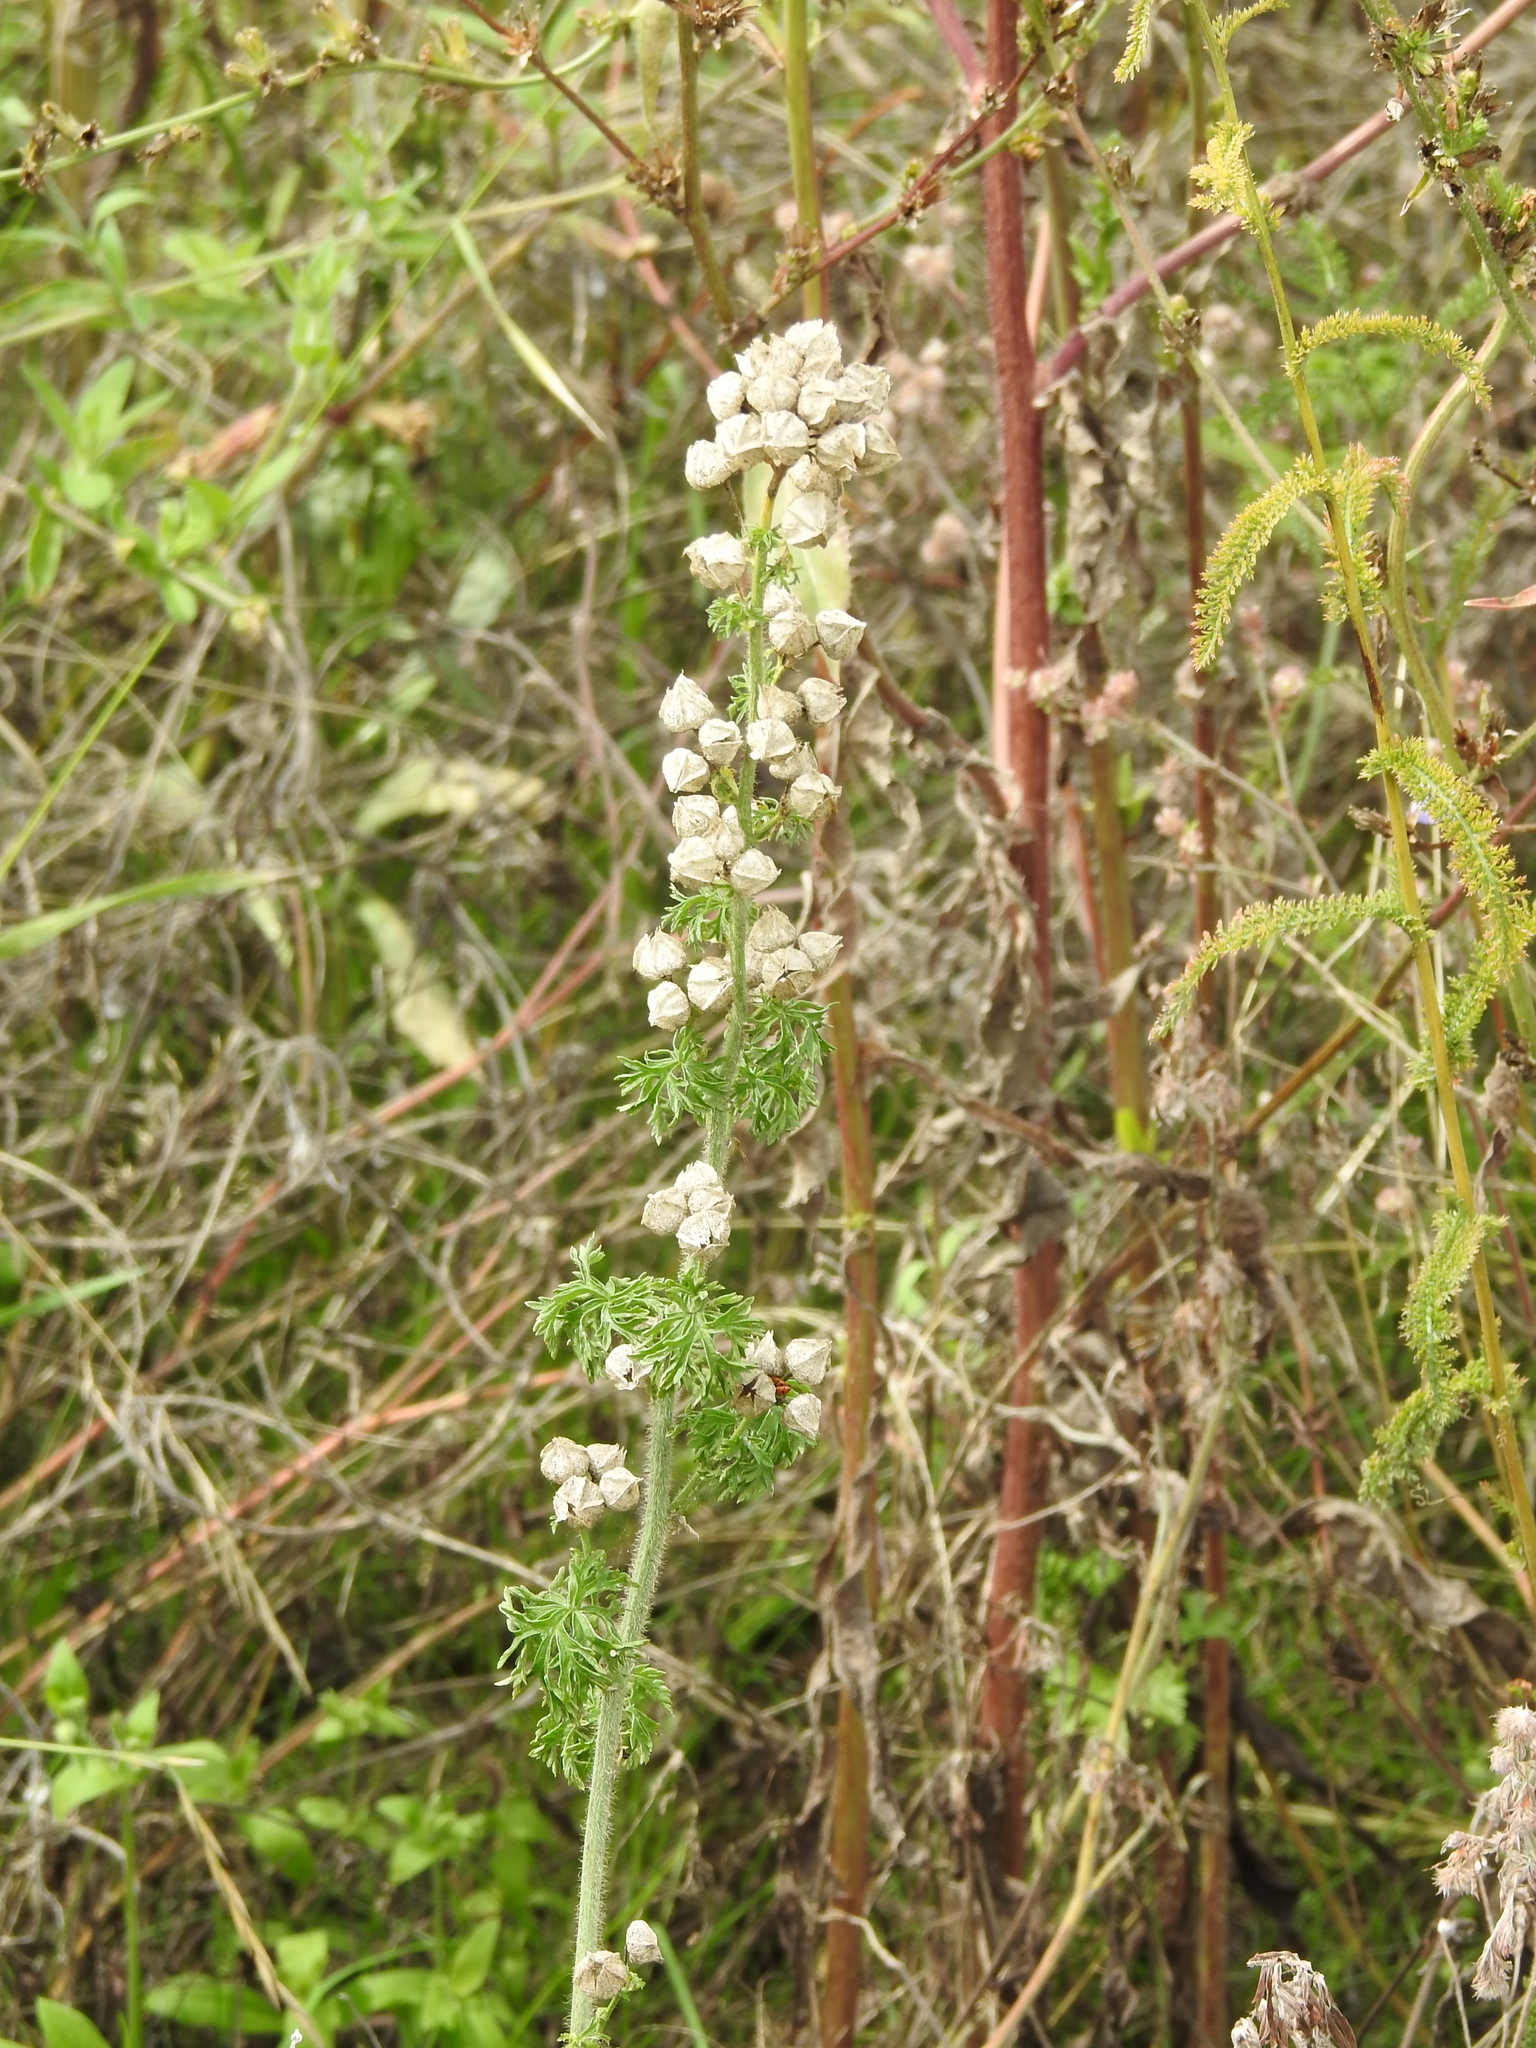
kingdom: Plantae
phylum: Tracheophyta
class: Magnoliopsida
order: Malvales
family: Malvaceae
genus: Malva
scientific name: Malva moschata
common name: Musk mallow
